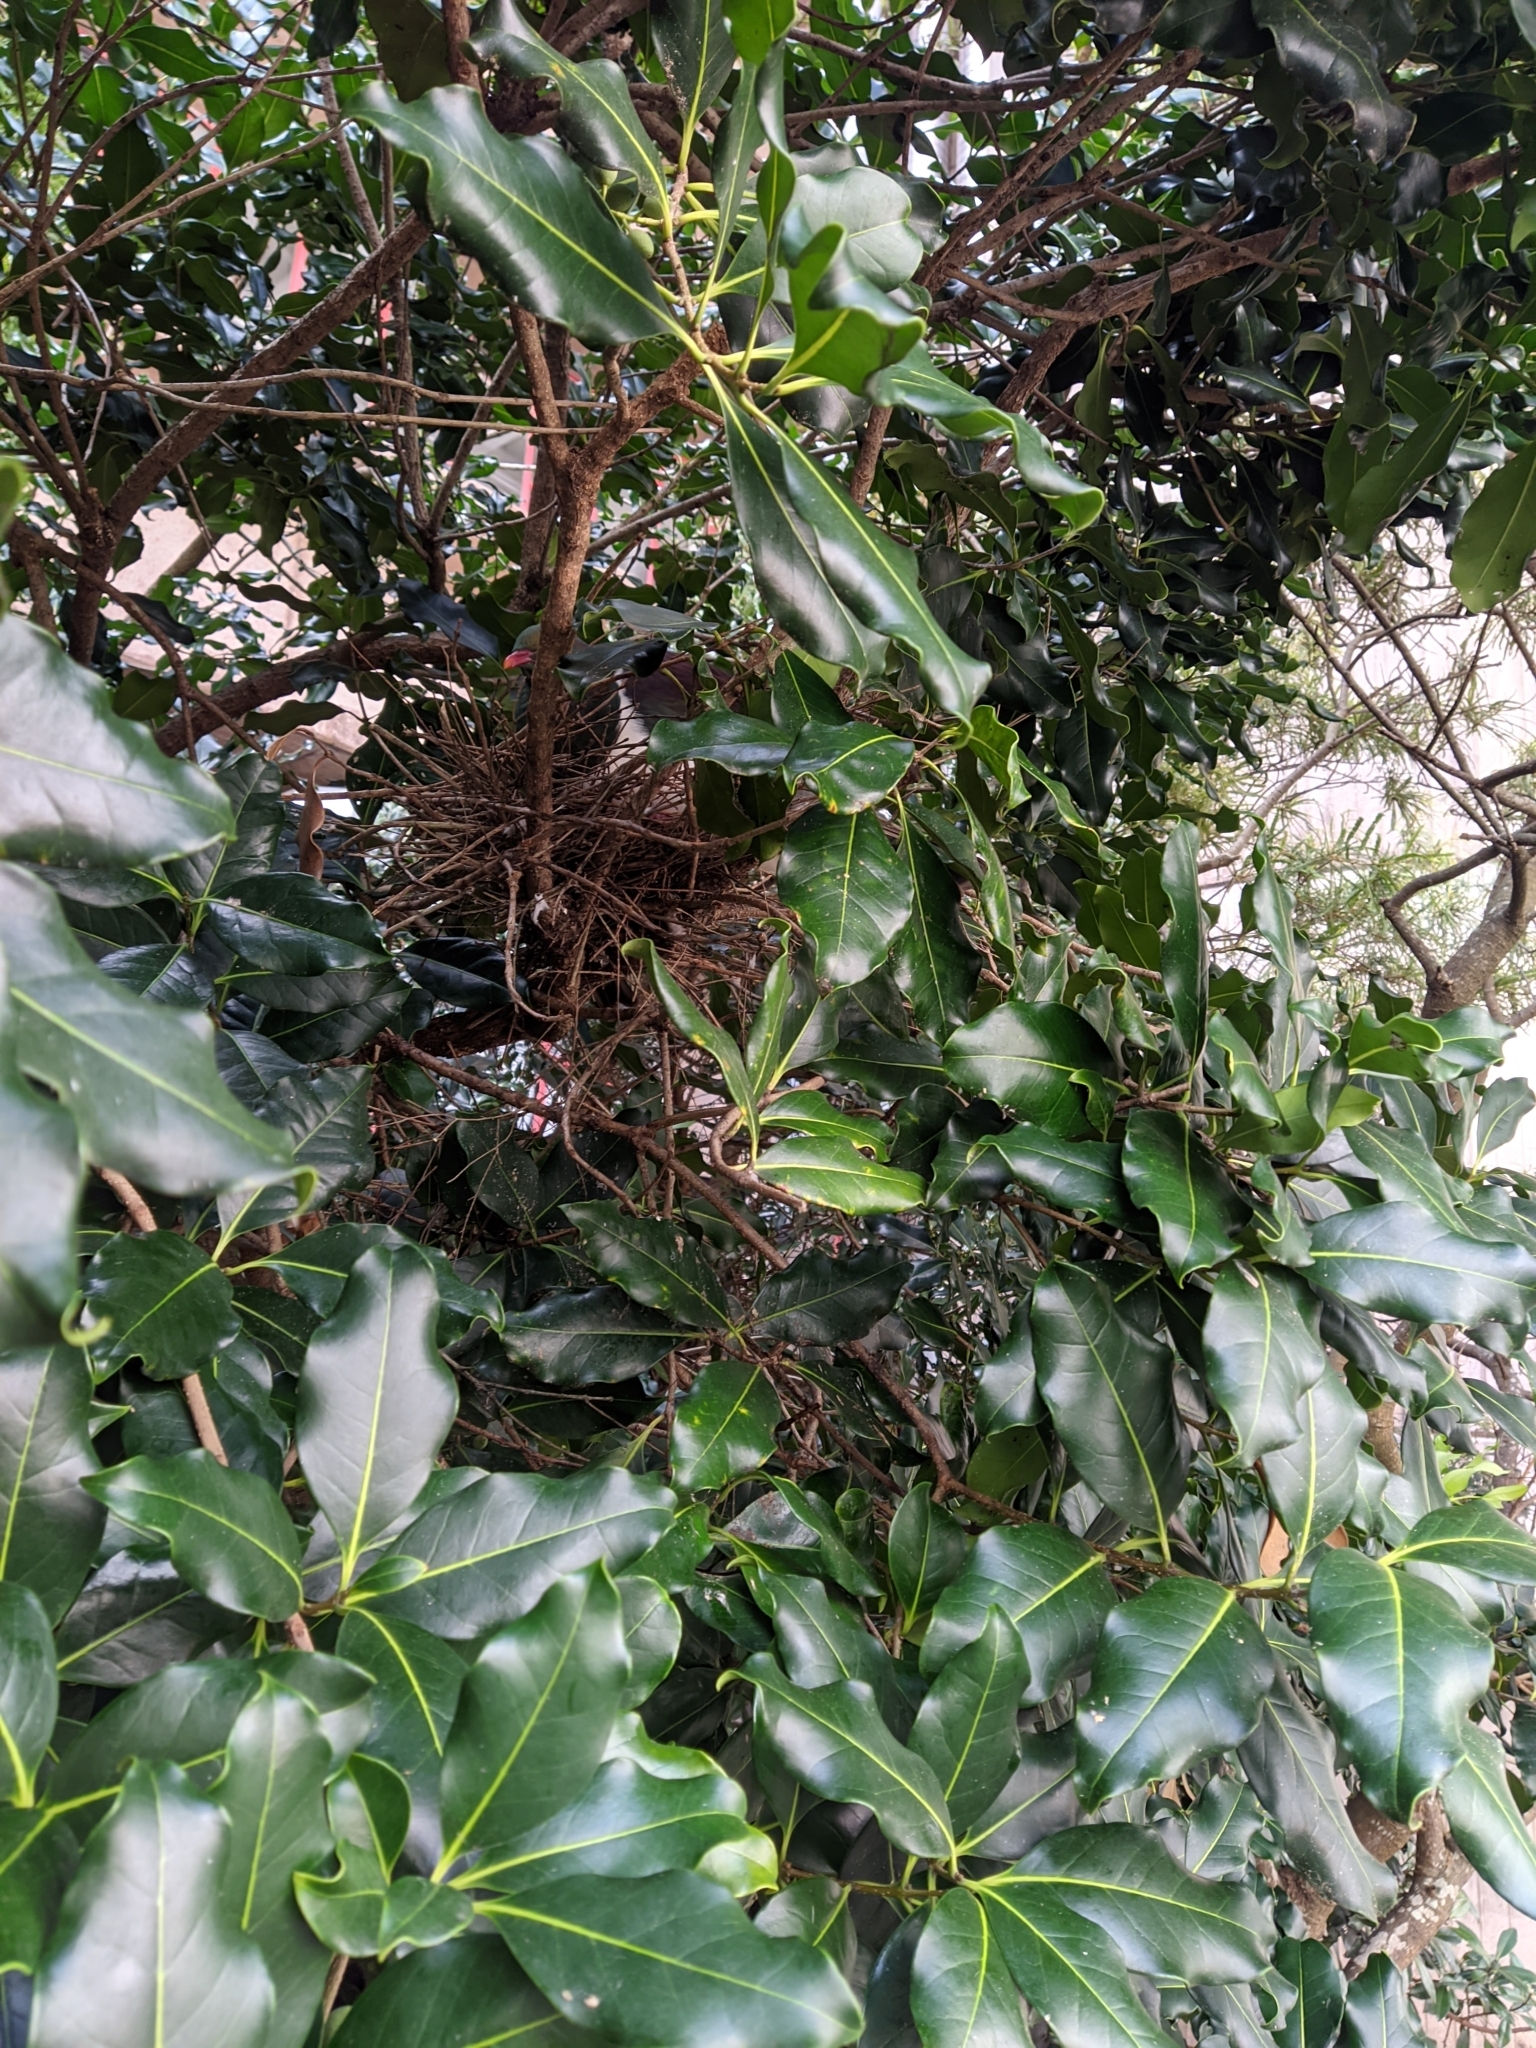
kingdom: Animalia
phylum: Chordata
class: Aves
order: Columbiformes
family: Columbidae
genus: Hemiphaga
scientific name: Hemiphaga novaeseelandiae
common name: New zealand pigeon
